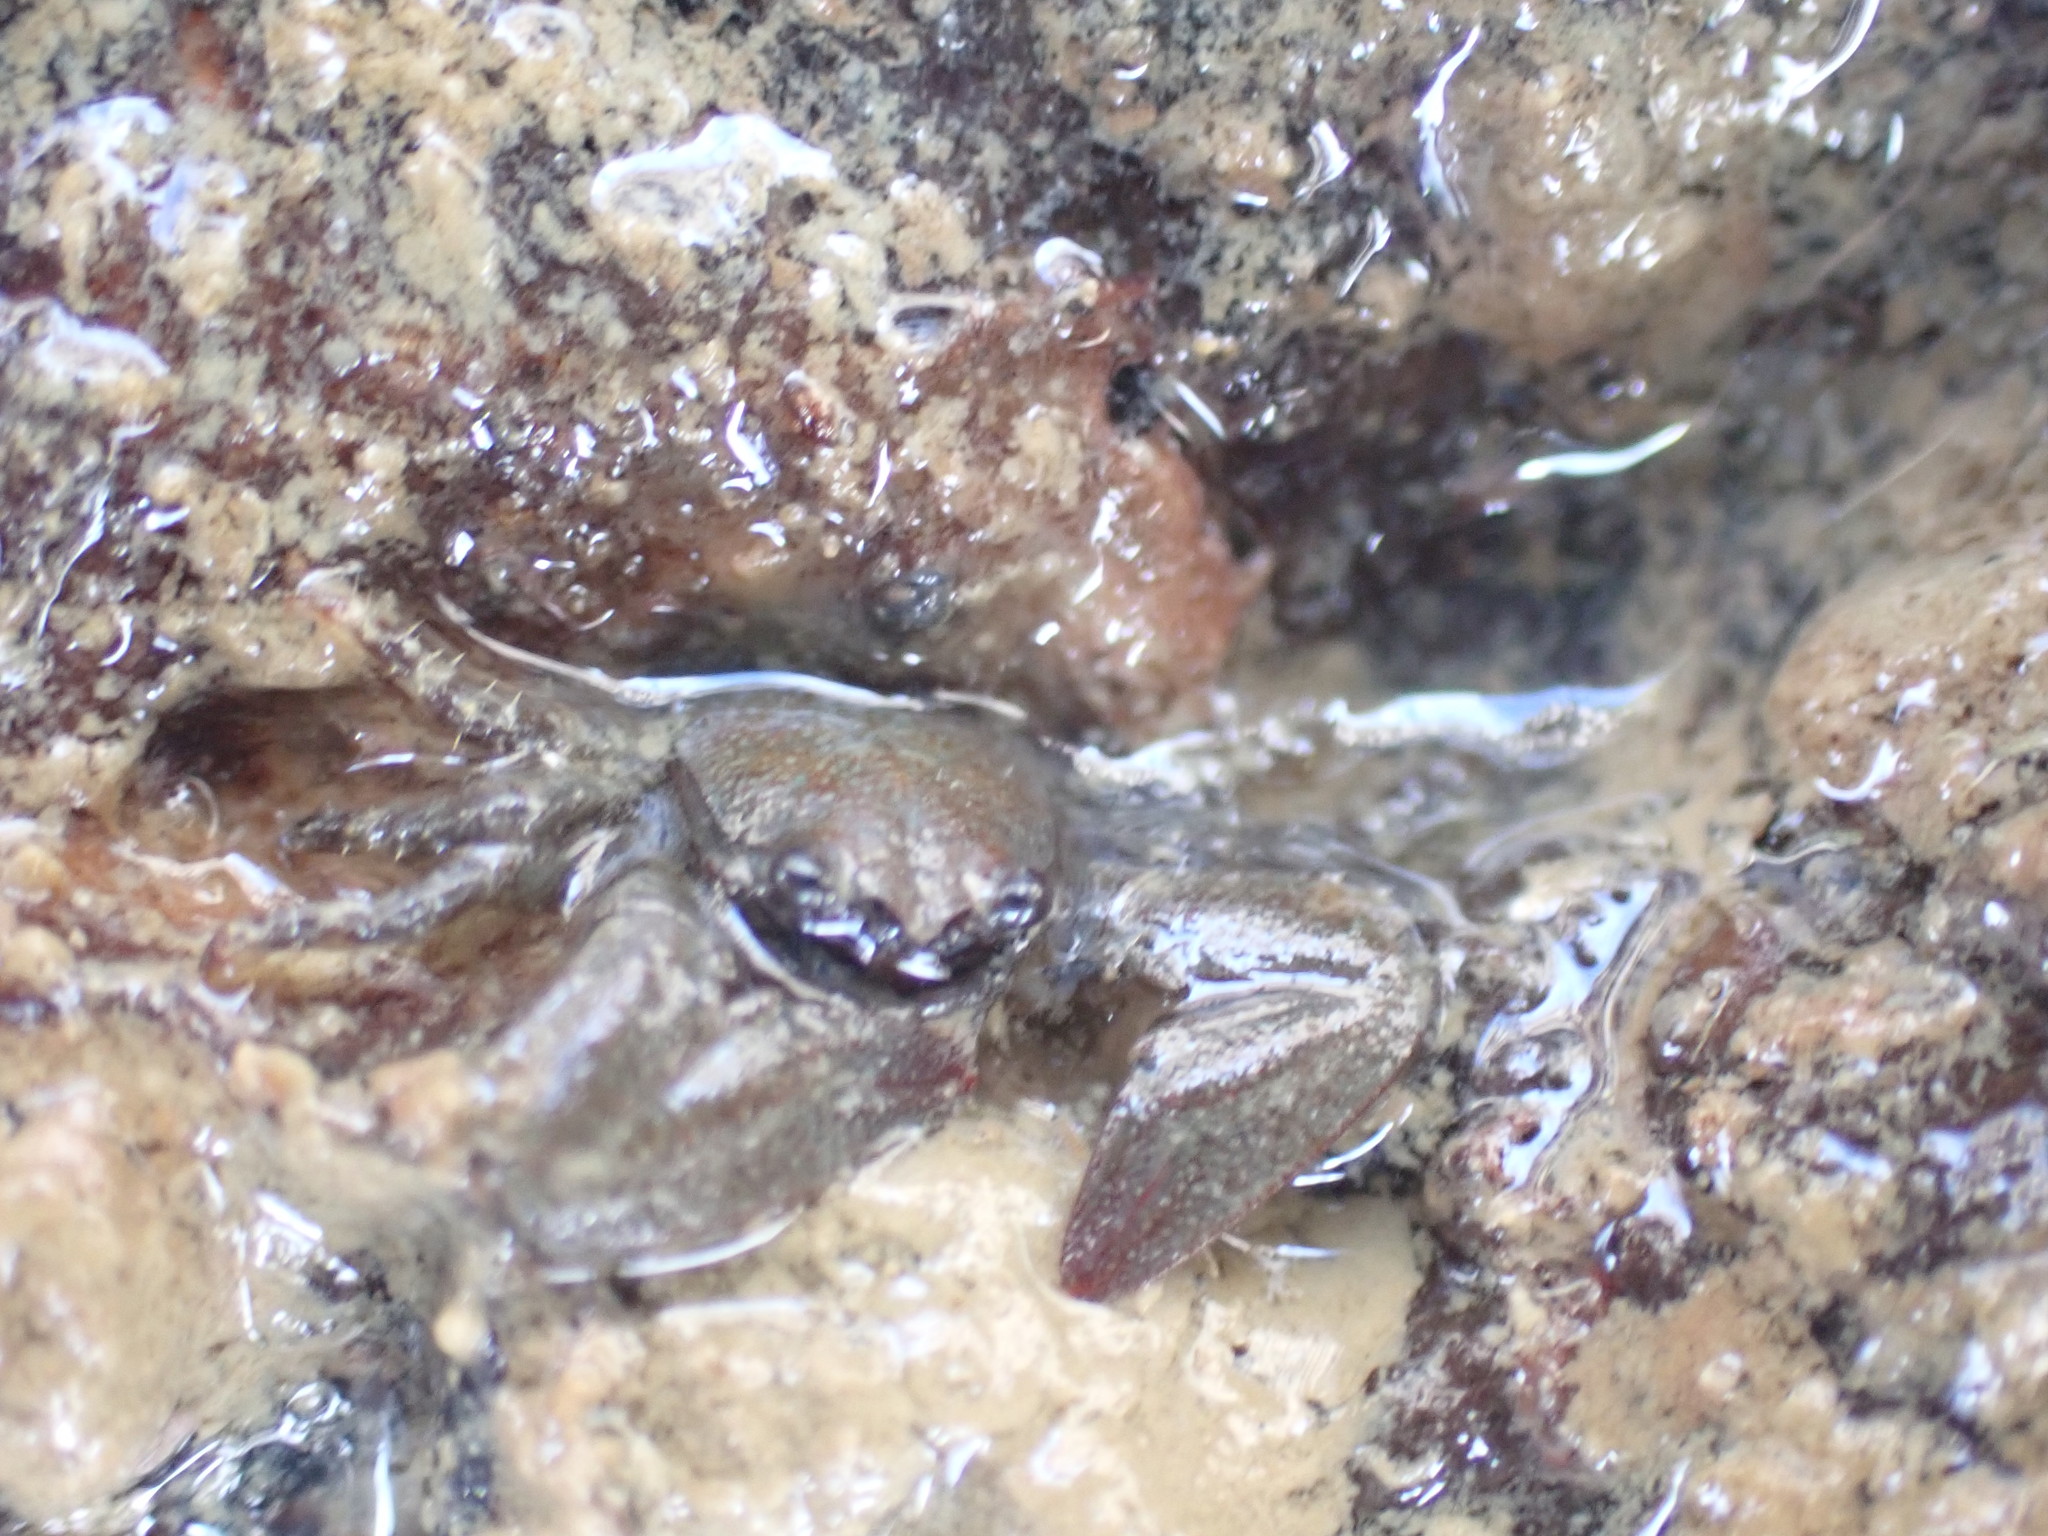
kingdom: Animalia
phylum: Arthropoda
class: Malacostraca
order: Decapoda
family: Porcellanidae
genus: Petrolisthes
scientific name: Petrolisthes elongatus
